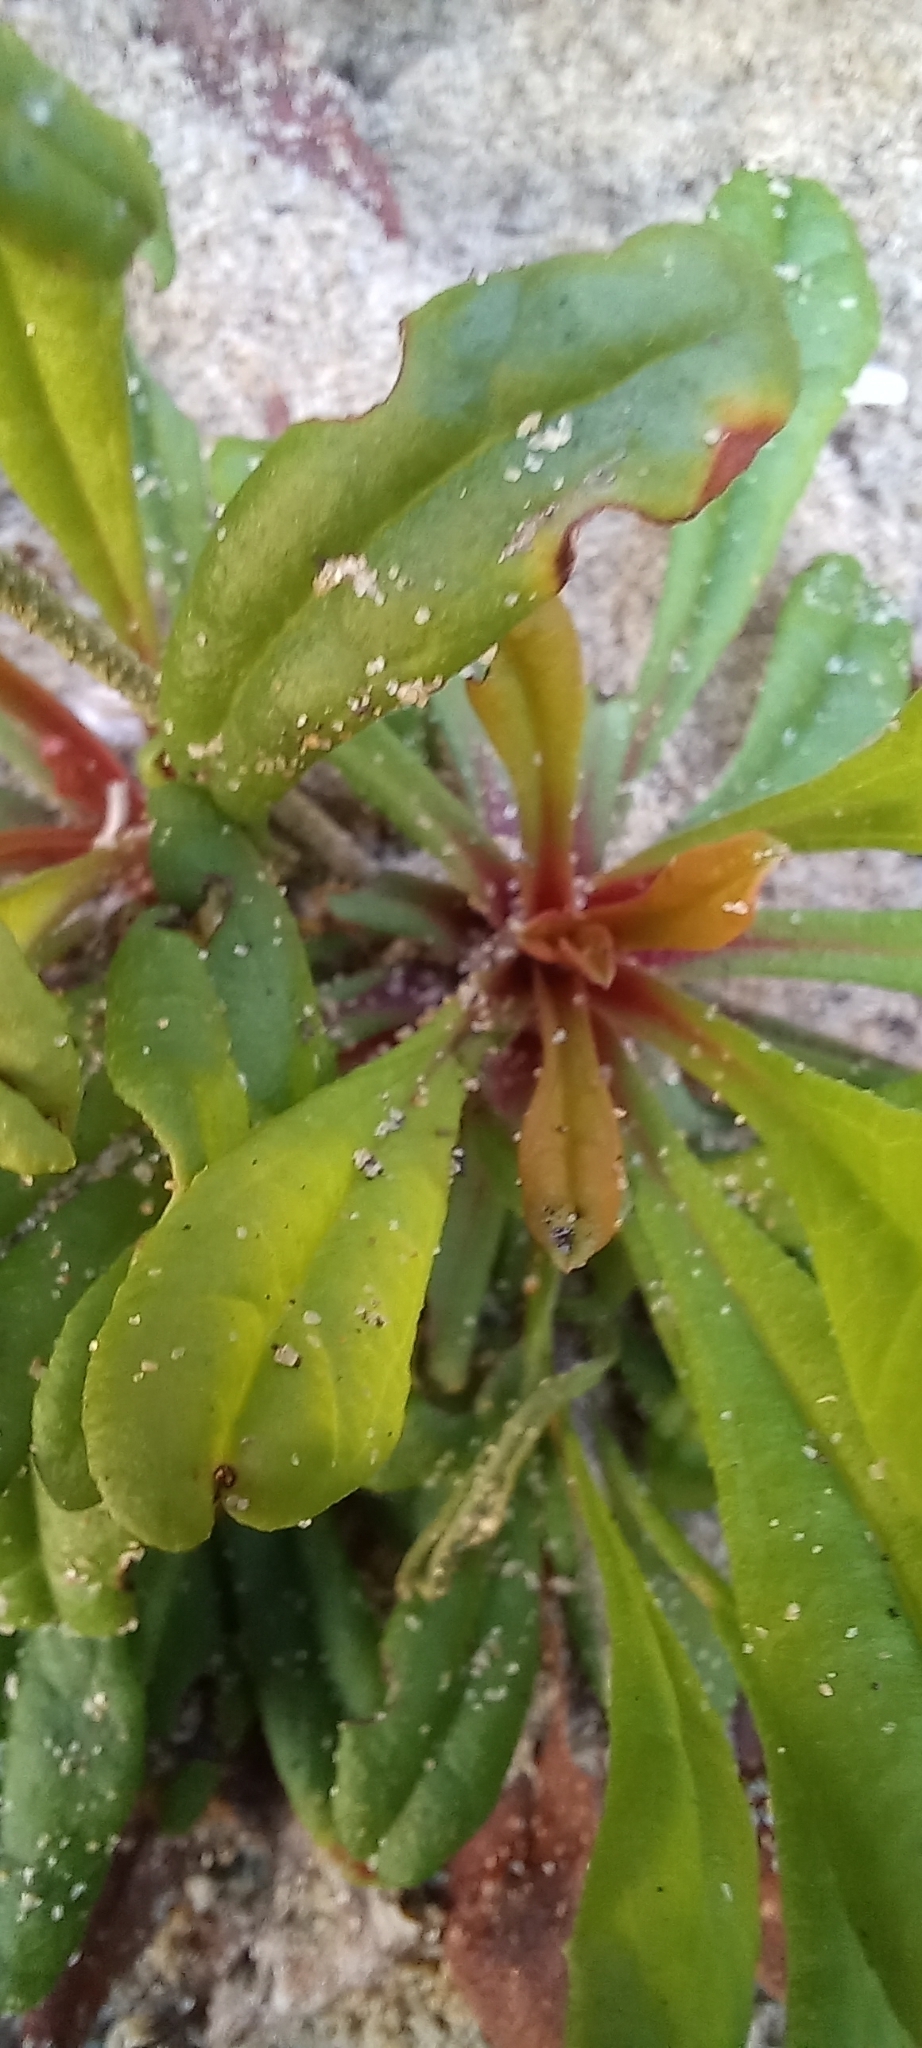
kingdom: Plantae
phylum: Tracheophyta
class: Magnoliopsida
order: Caryophyllales
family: Plumbaginaceae
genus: Limonium
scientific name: Limonium scabrum
